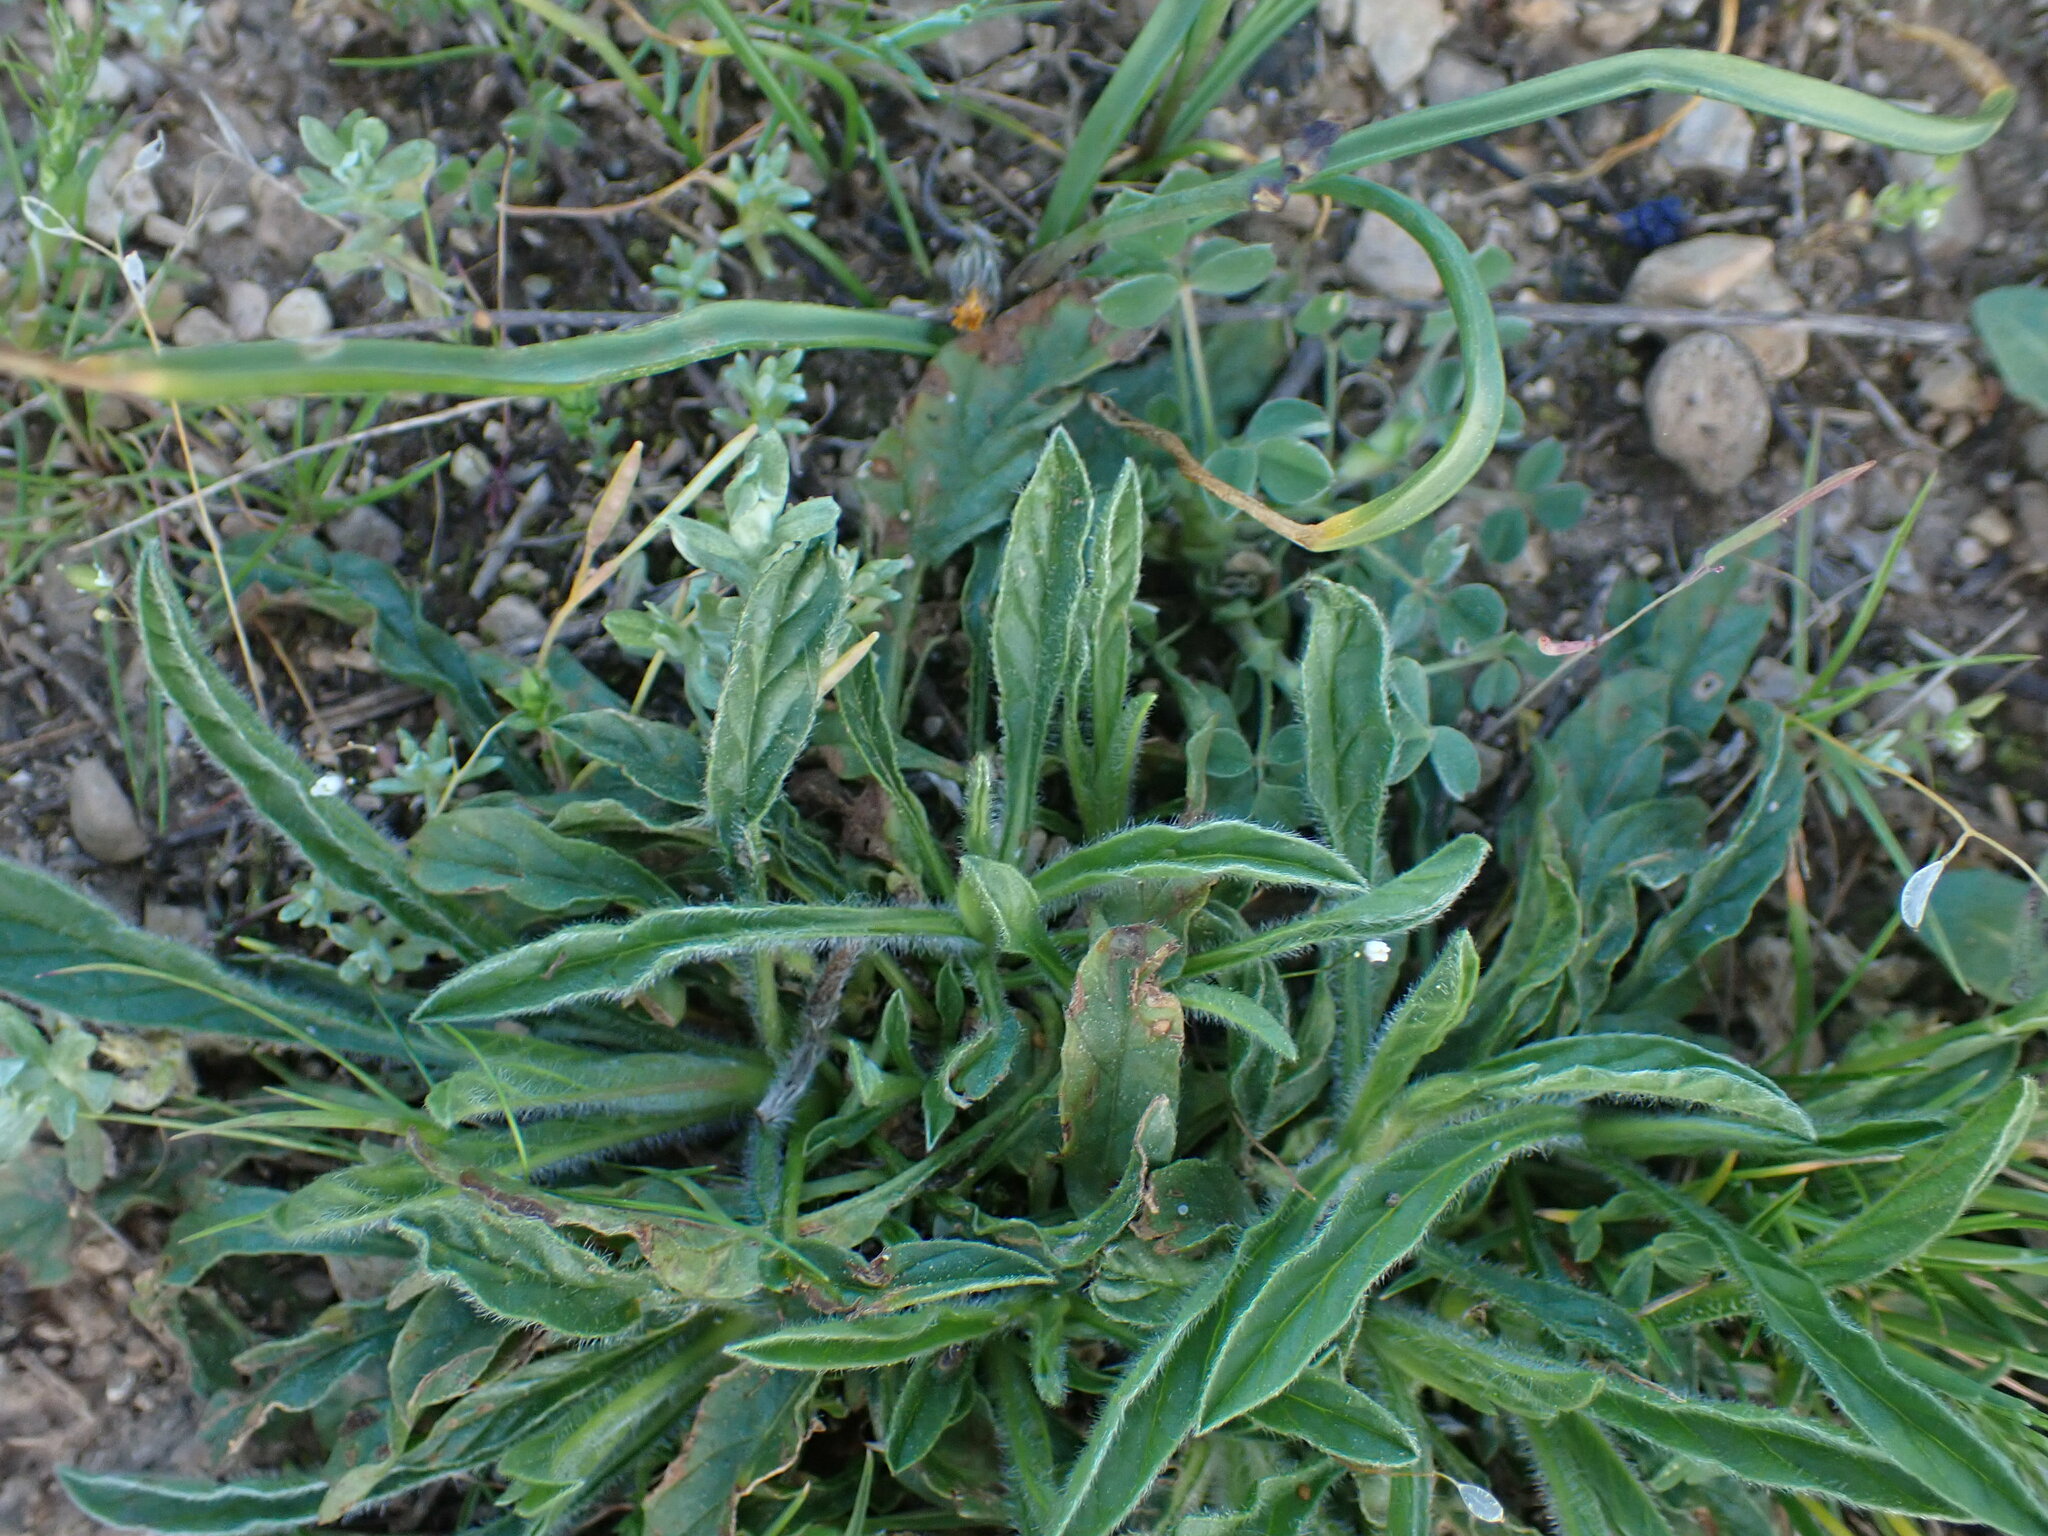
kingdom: Plantae
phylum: Tracheophyta
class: Magnoliopsida
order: Solanales
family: Convolvulaceae
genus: Convolvulus
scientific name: Convolvulus cantabrica
